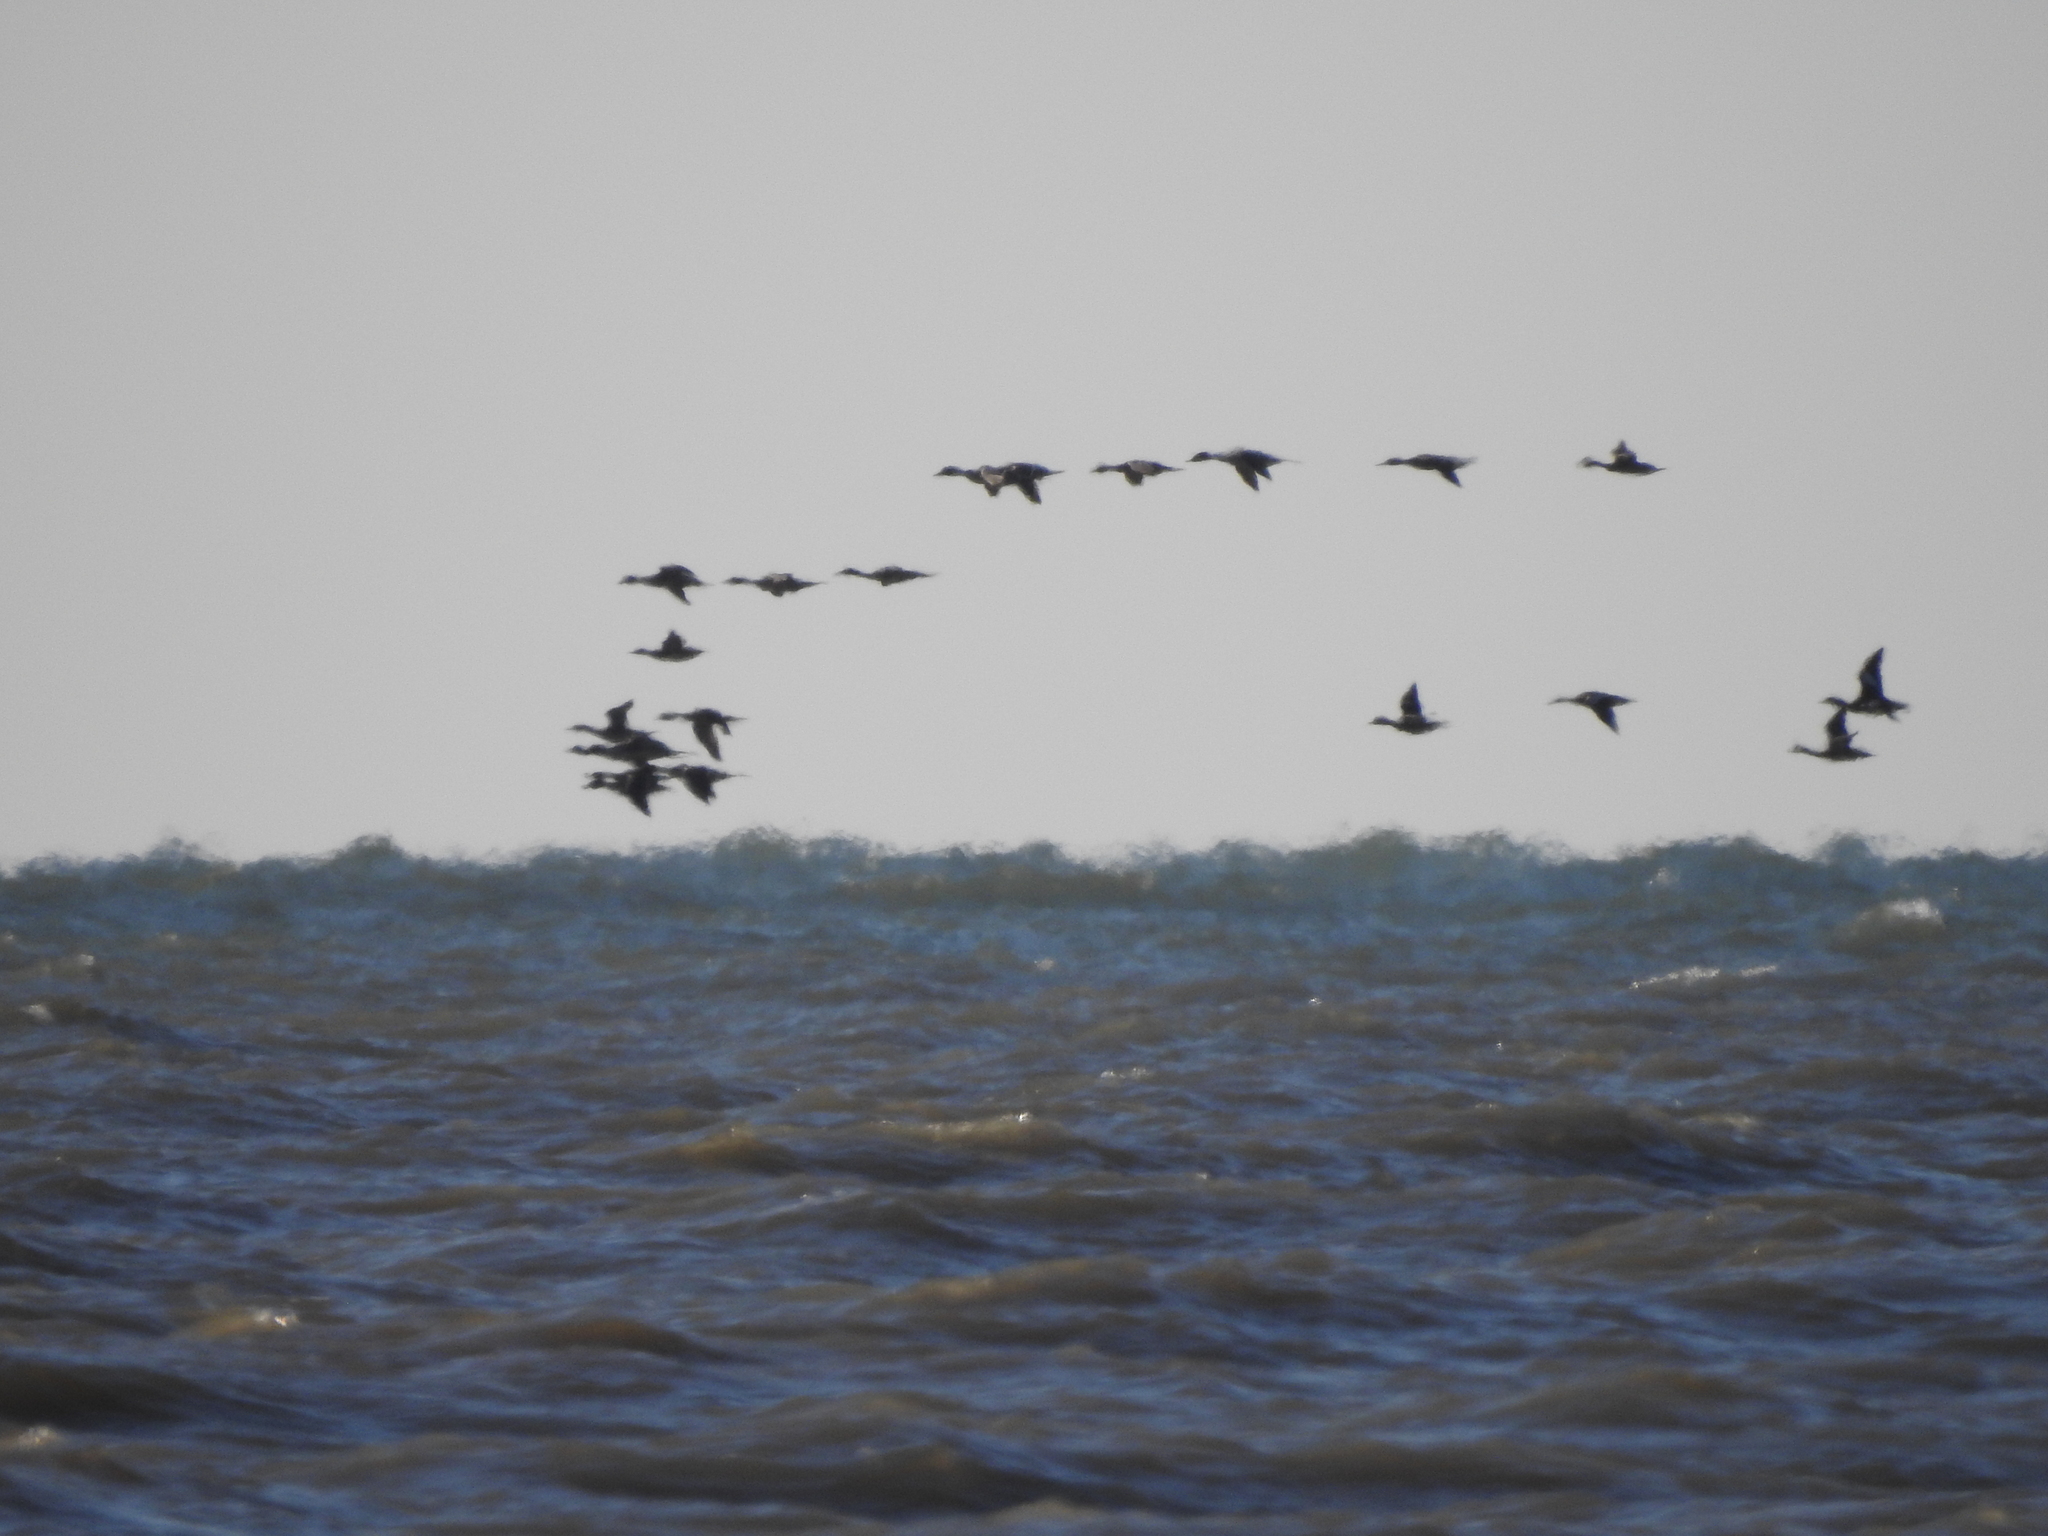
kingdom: Animalia
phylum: Chordata
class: Aves
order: Anseriformes
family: Anatidae
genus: Anas
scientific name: Anas acuta
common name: Northern pintail
